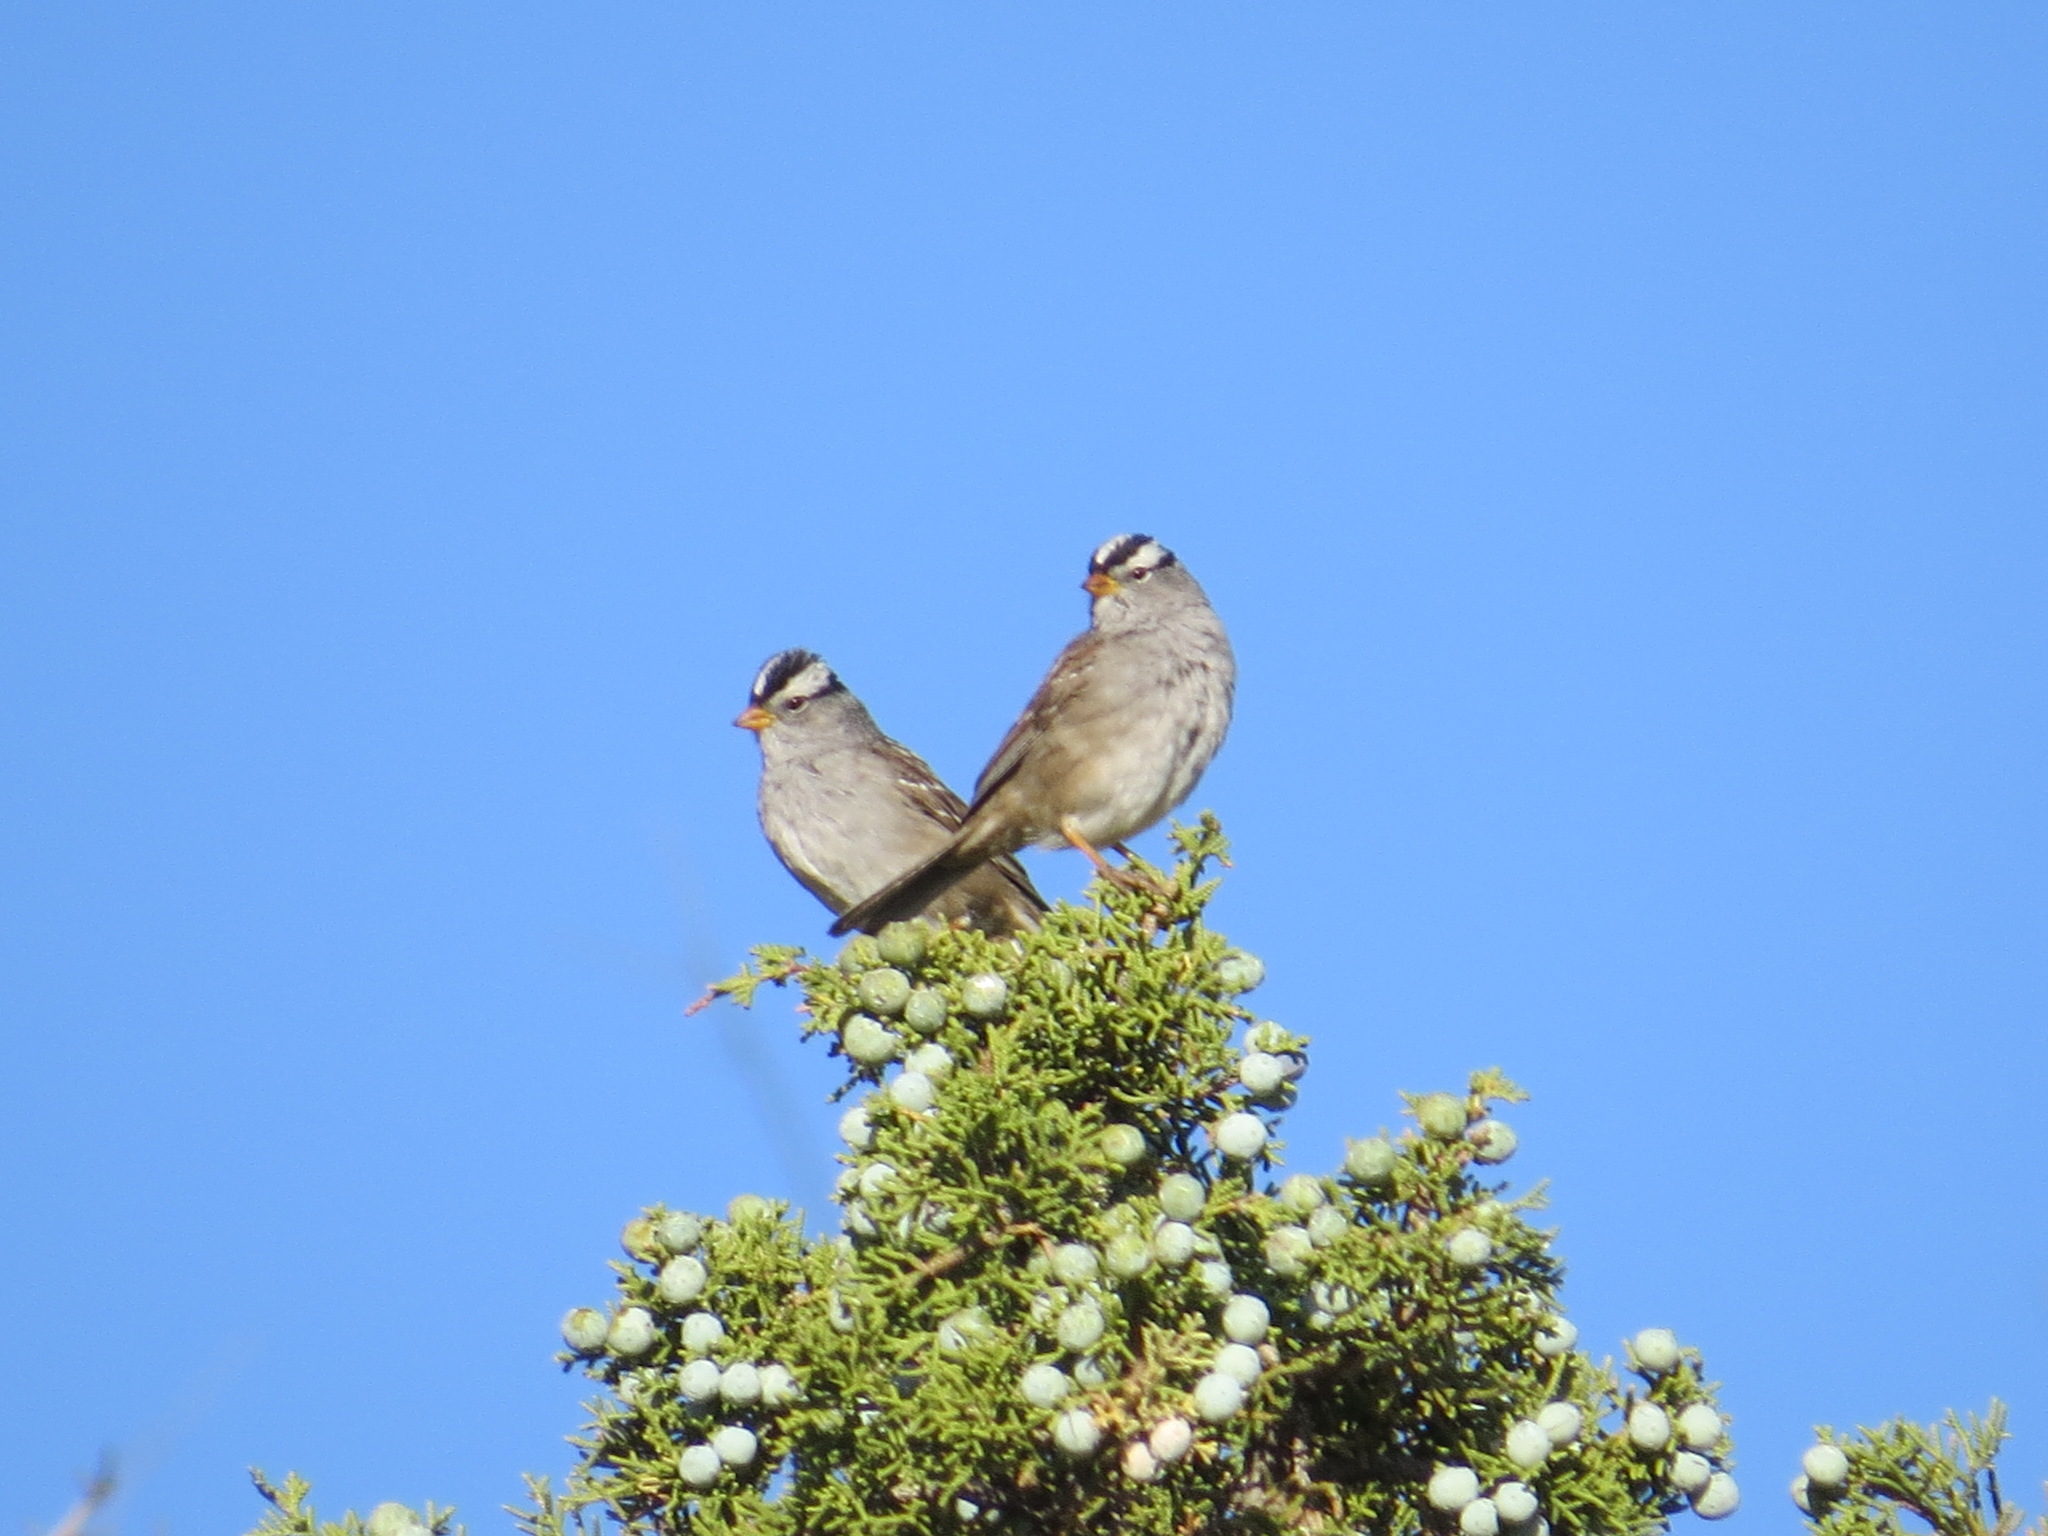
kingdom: Animalia
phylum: Chordata
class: Aves
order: Passeriformes
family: Passerellidae
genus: Zonotrichia
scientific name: Zonotrichia leucophrys
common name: White-crowned sparrow
